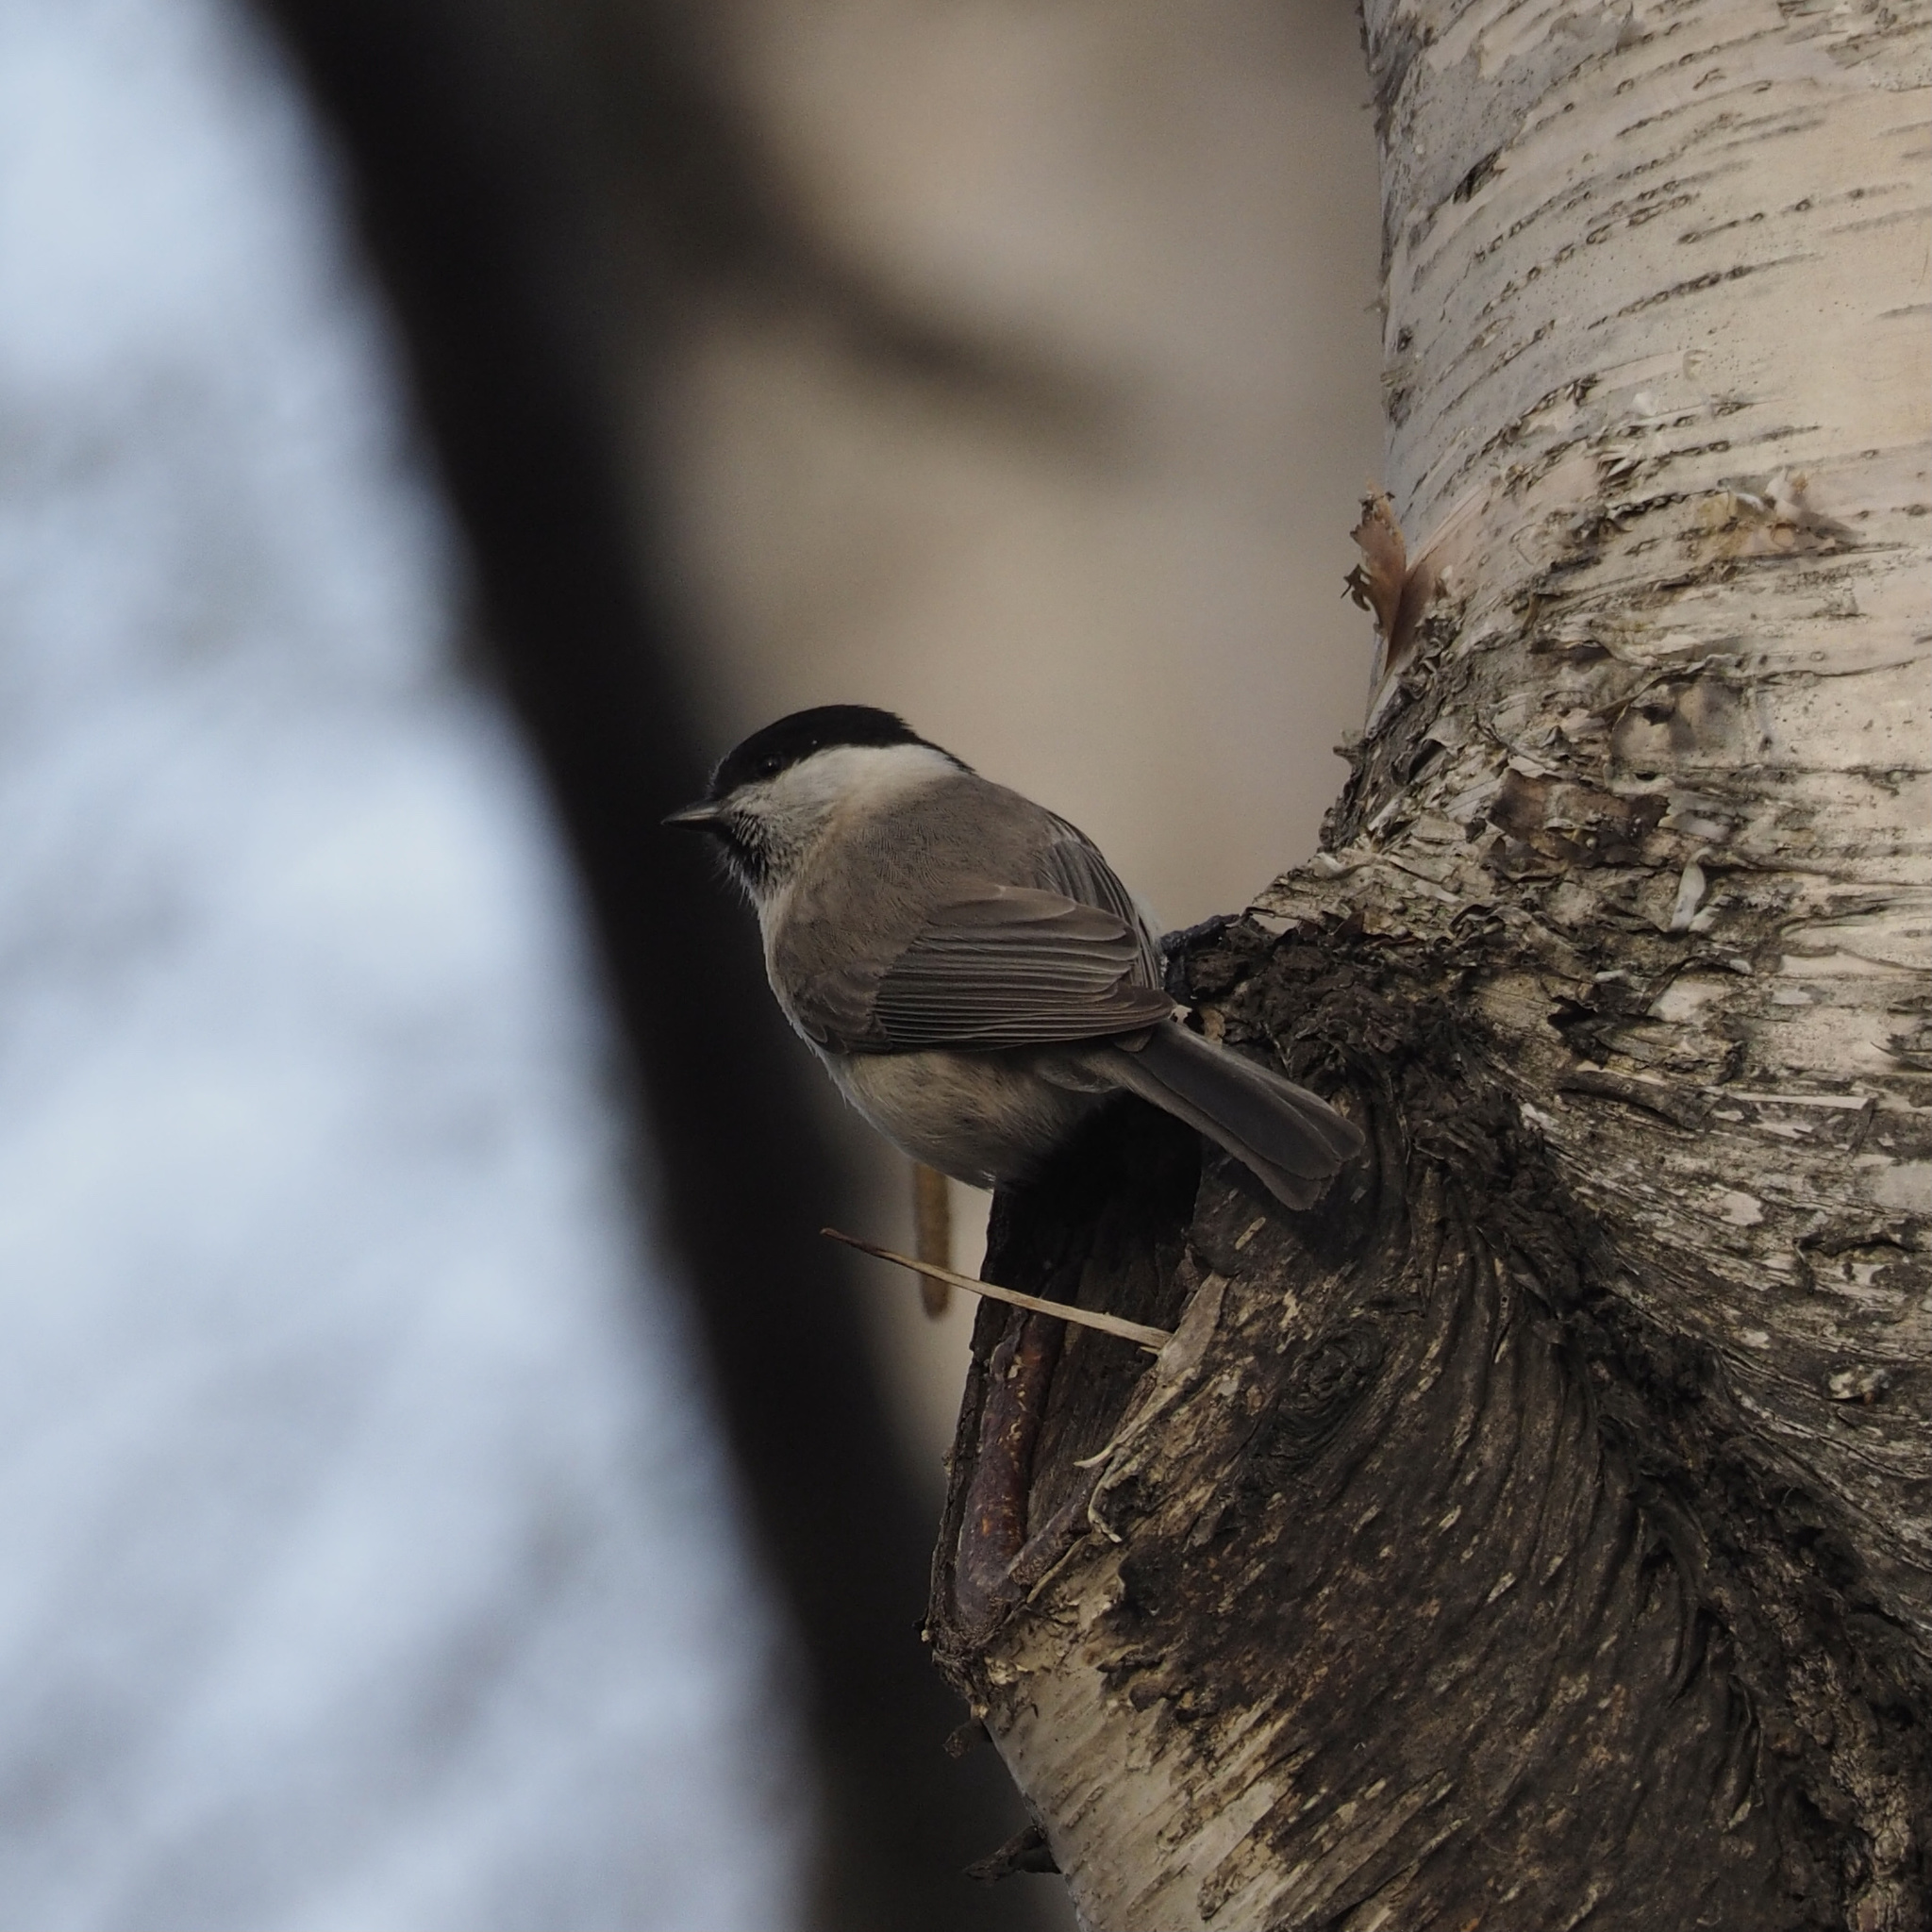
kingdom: Animalia
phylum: Chordata
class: Aves
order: Passeriformes
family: Paridae
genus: Poecile
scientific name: Poecile palustris
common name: Marsh tit
